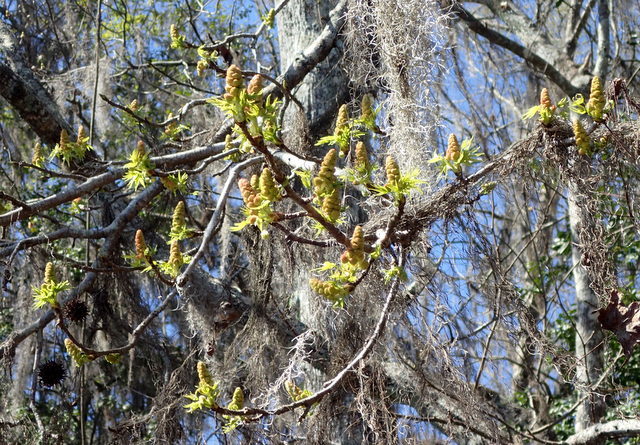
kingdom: Plantae
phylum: Tracheophyta
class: Magnoliopsida
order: Saxifragales
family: Altingiaceae
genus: Liquidambar
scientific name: Liquidambar styraciflua
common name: Sweet gum
